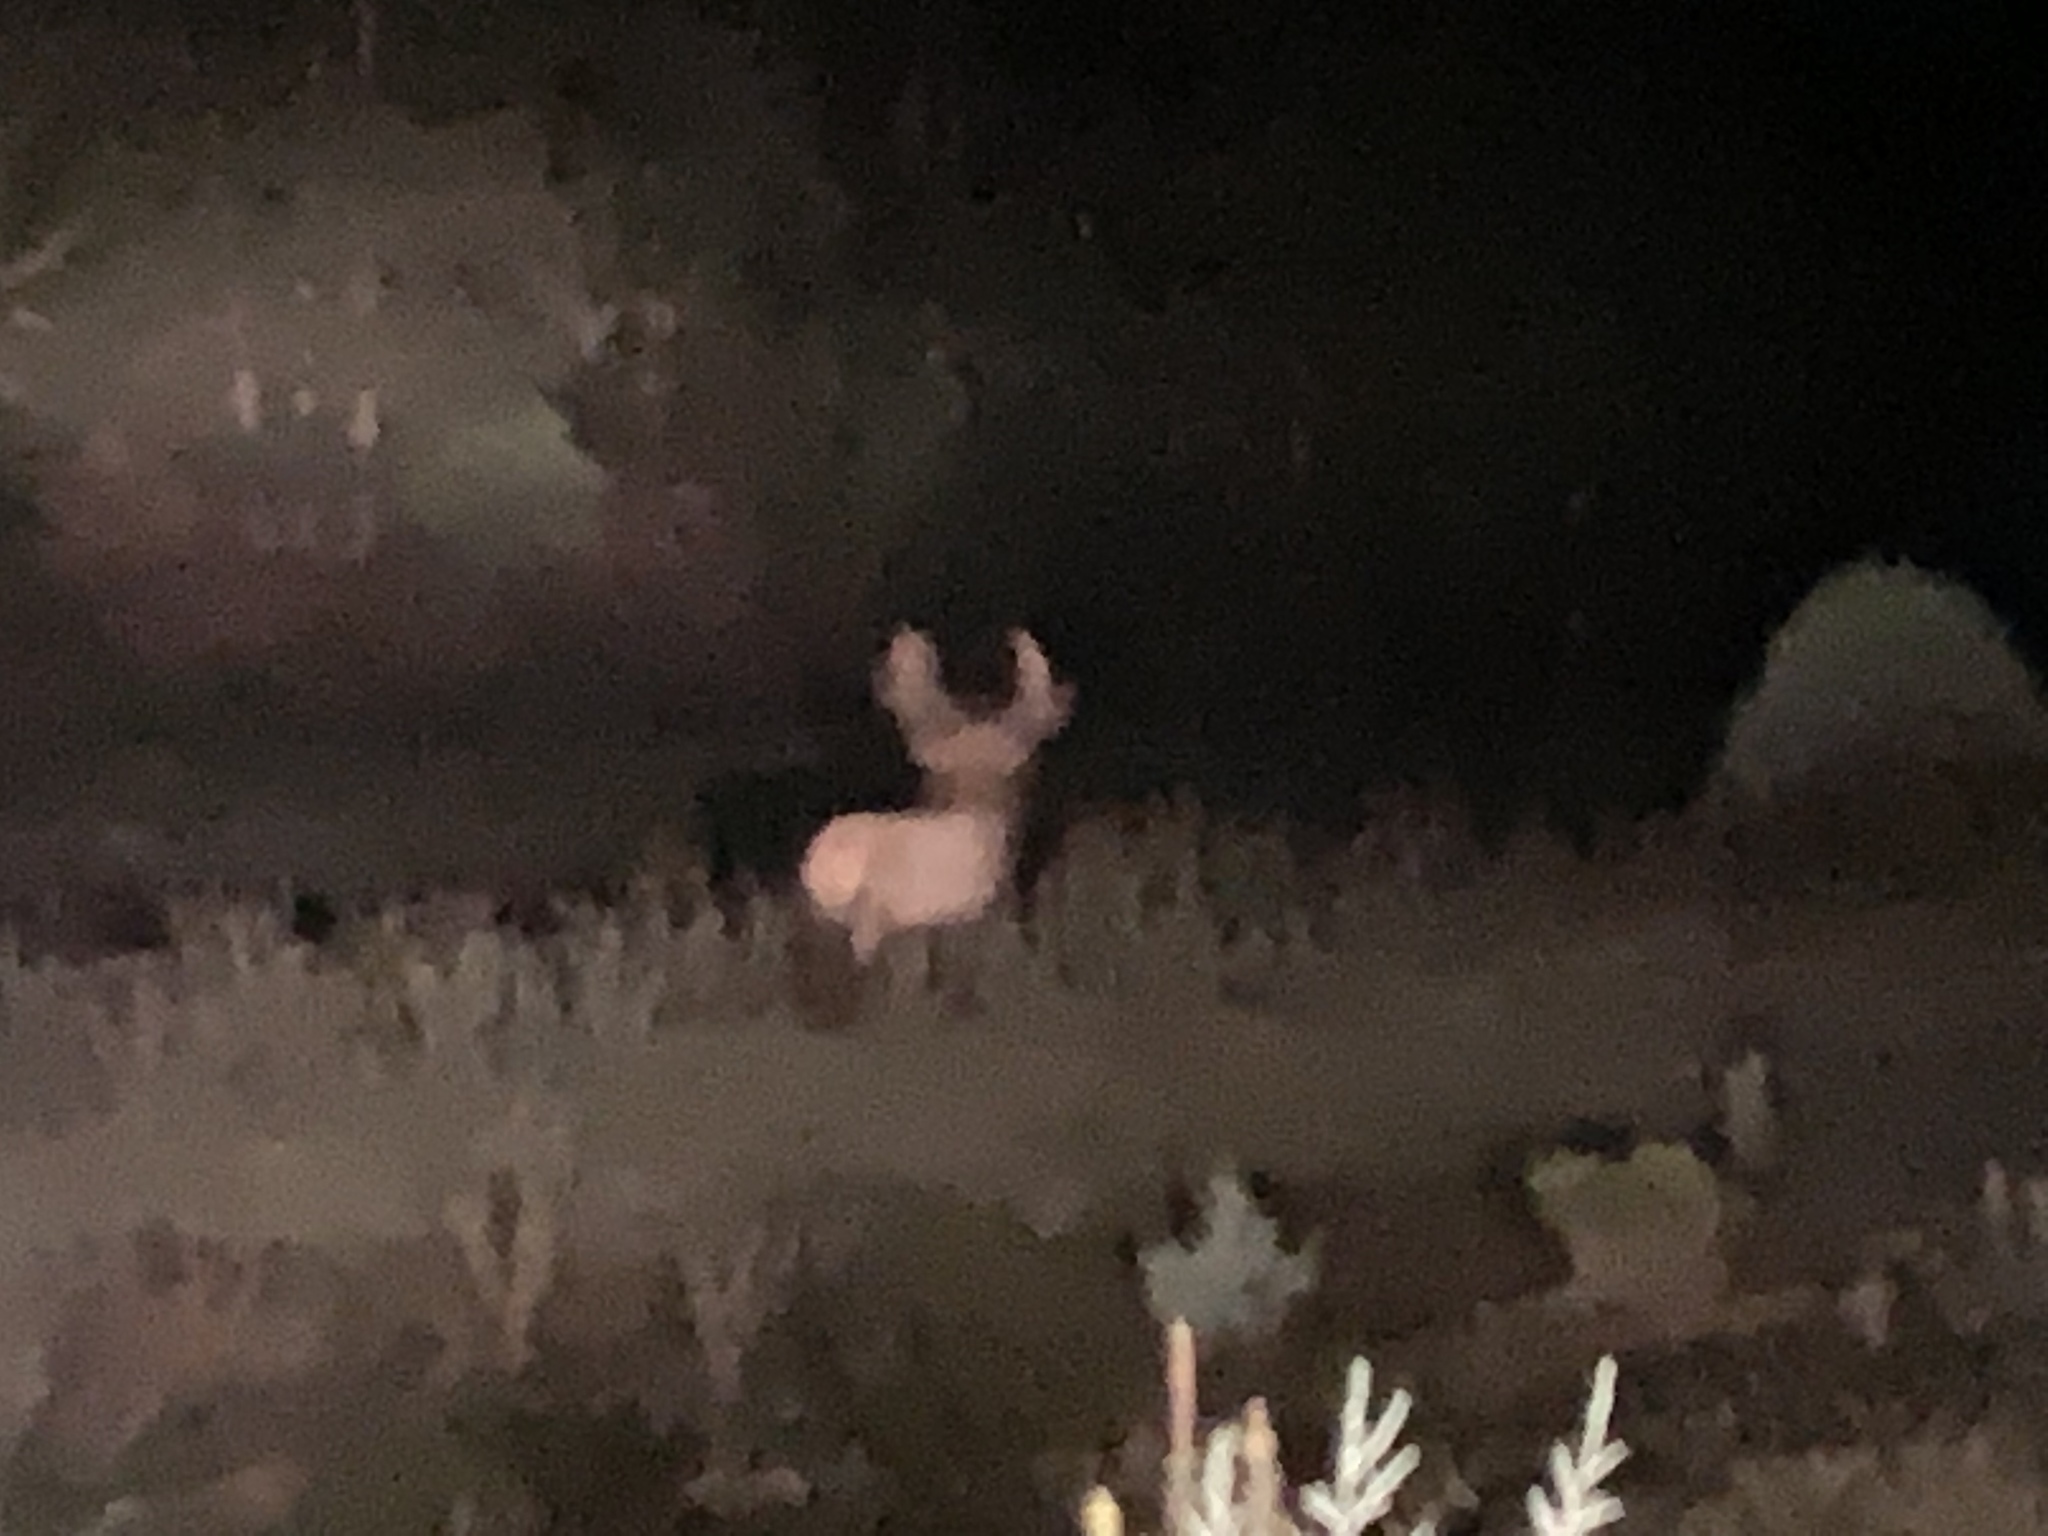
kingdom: Animalia
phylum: Chordata
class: Mammalia
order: Artiodactyla
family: Cervidae
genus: Cervus
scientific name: Cervus elaphus
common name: Red deer
